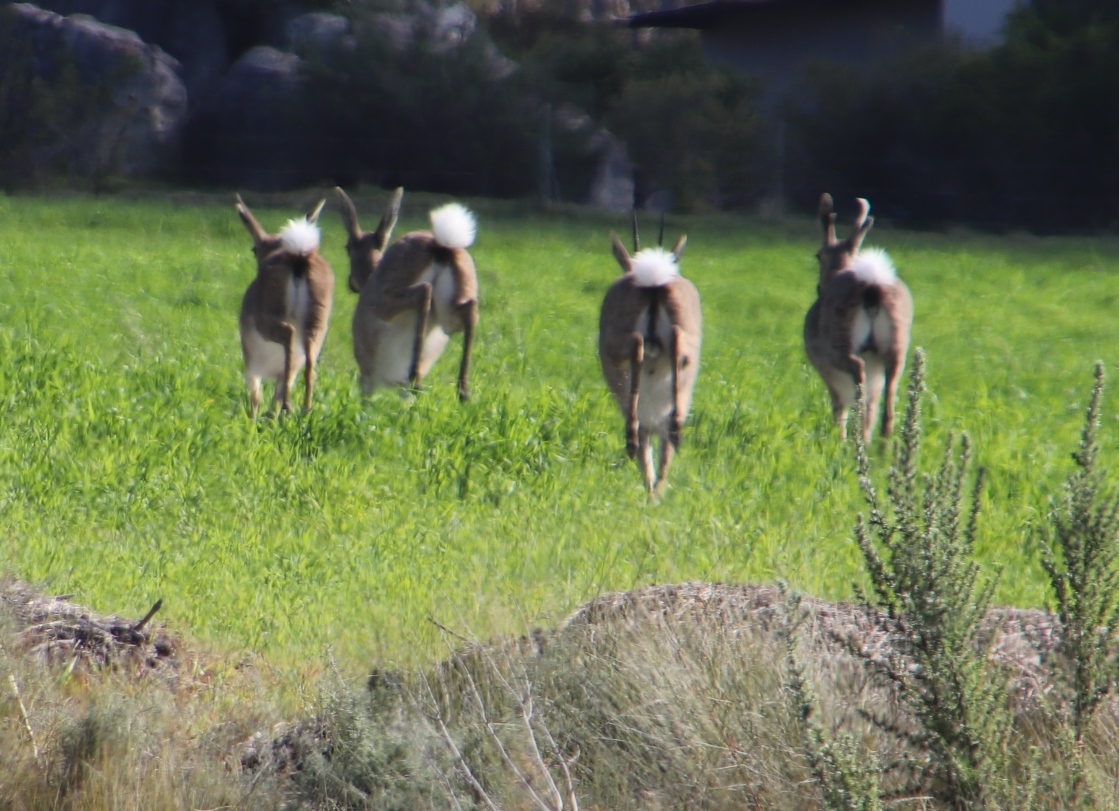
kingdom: Animalia
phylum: Chordata
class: Mammalia
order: Artiodactyla
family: Bovidae
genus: Pelea
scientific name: Pelea capreolus
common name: Common rhebok
